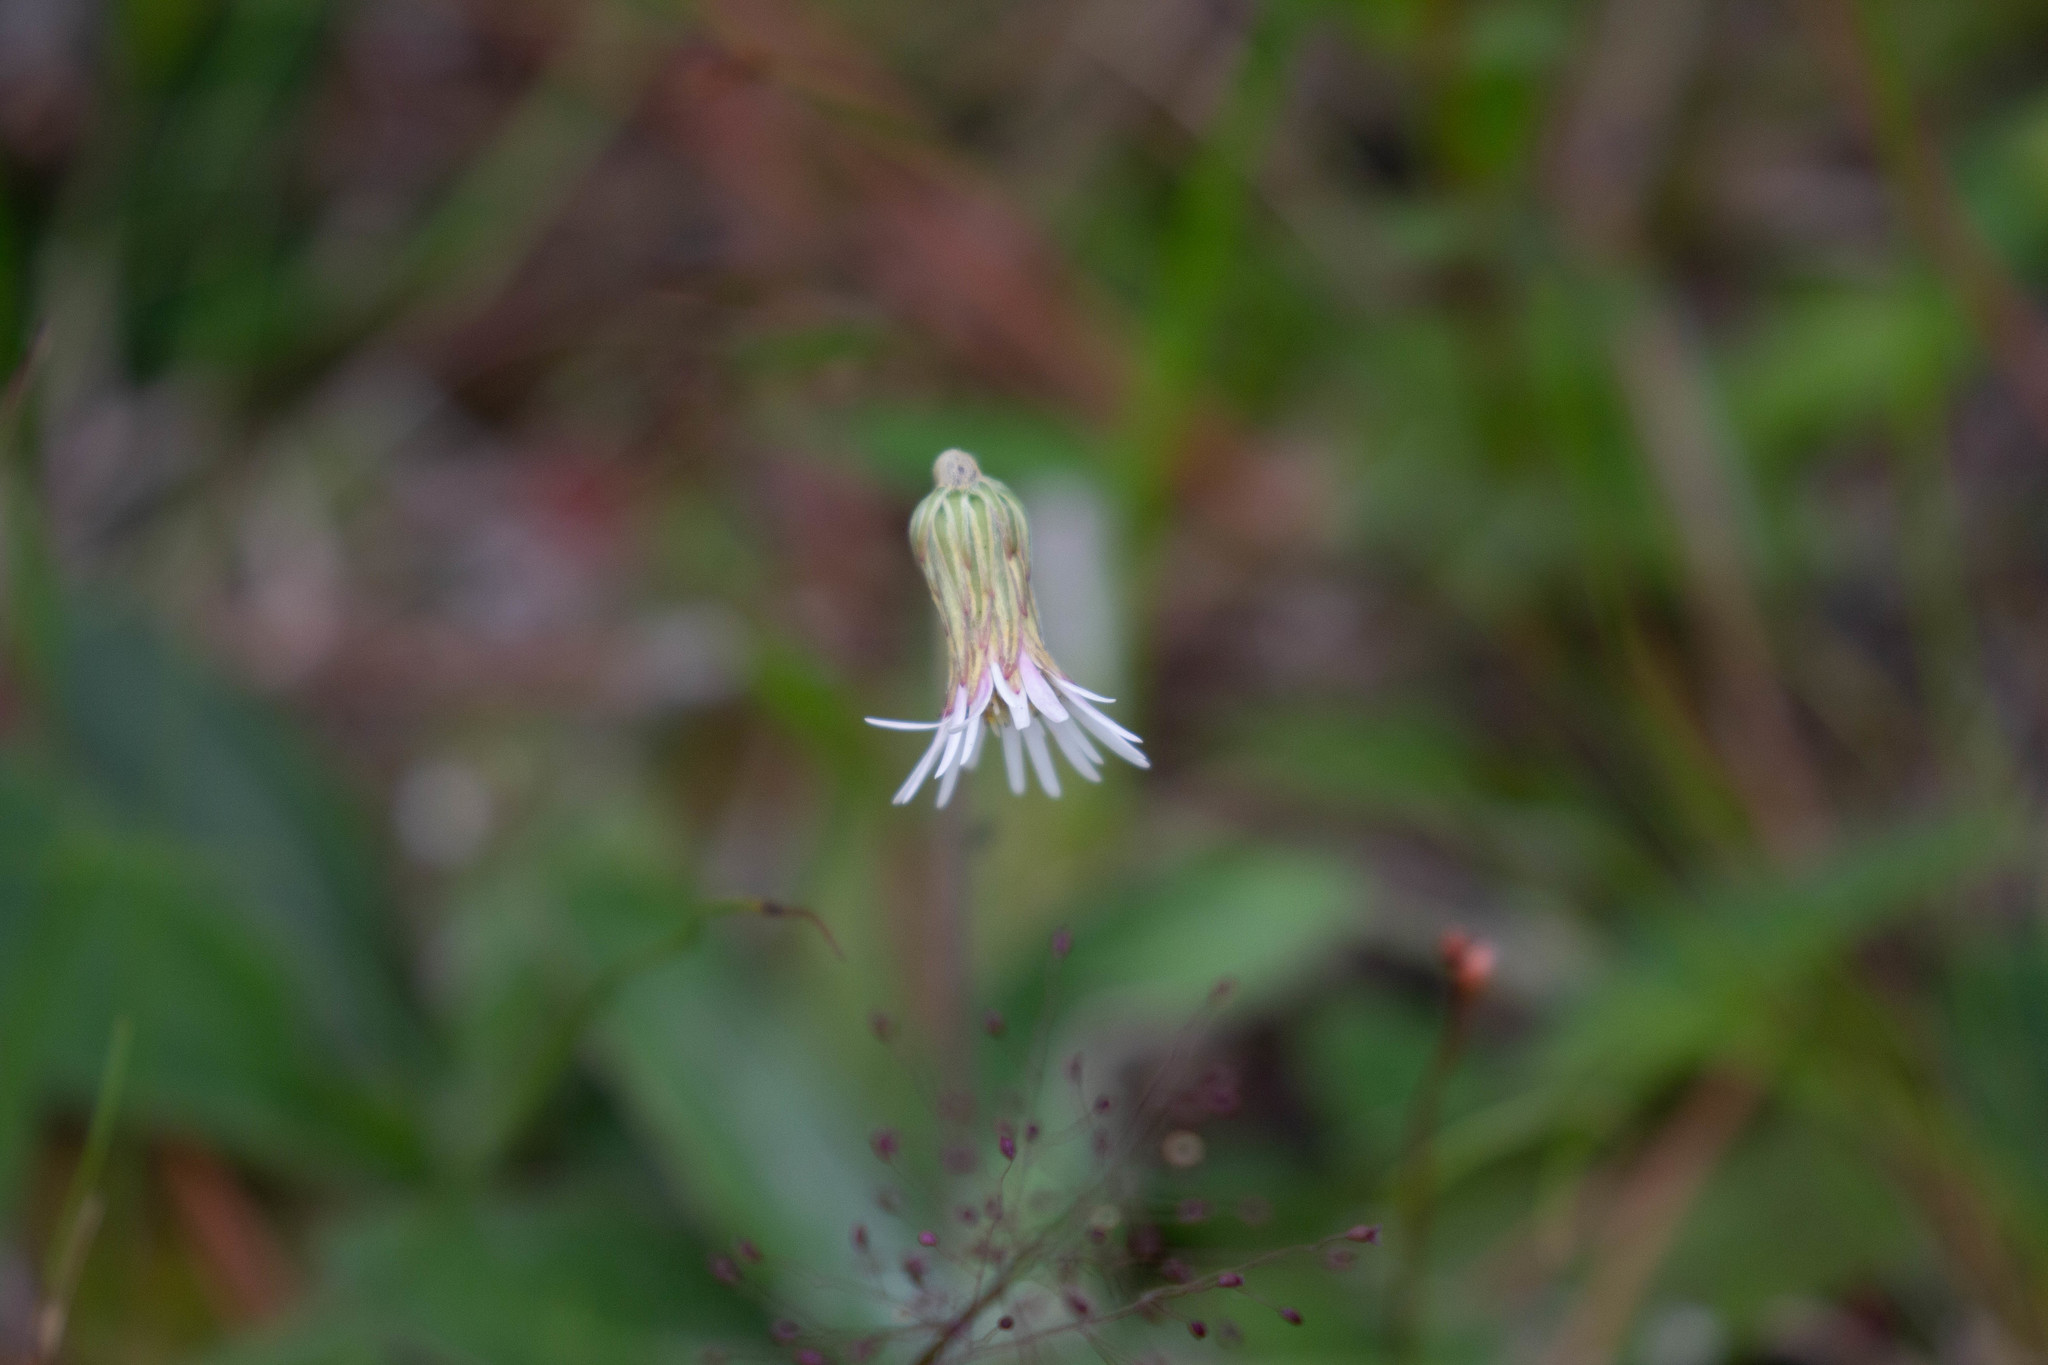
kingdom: Plantae
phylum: Tracheophyta
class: Magnoliopsida
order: Asterales
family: Asteraceae
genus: Chaptalia
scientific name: Chaptalia tomentosa
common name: Woolly sunbonnet
